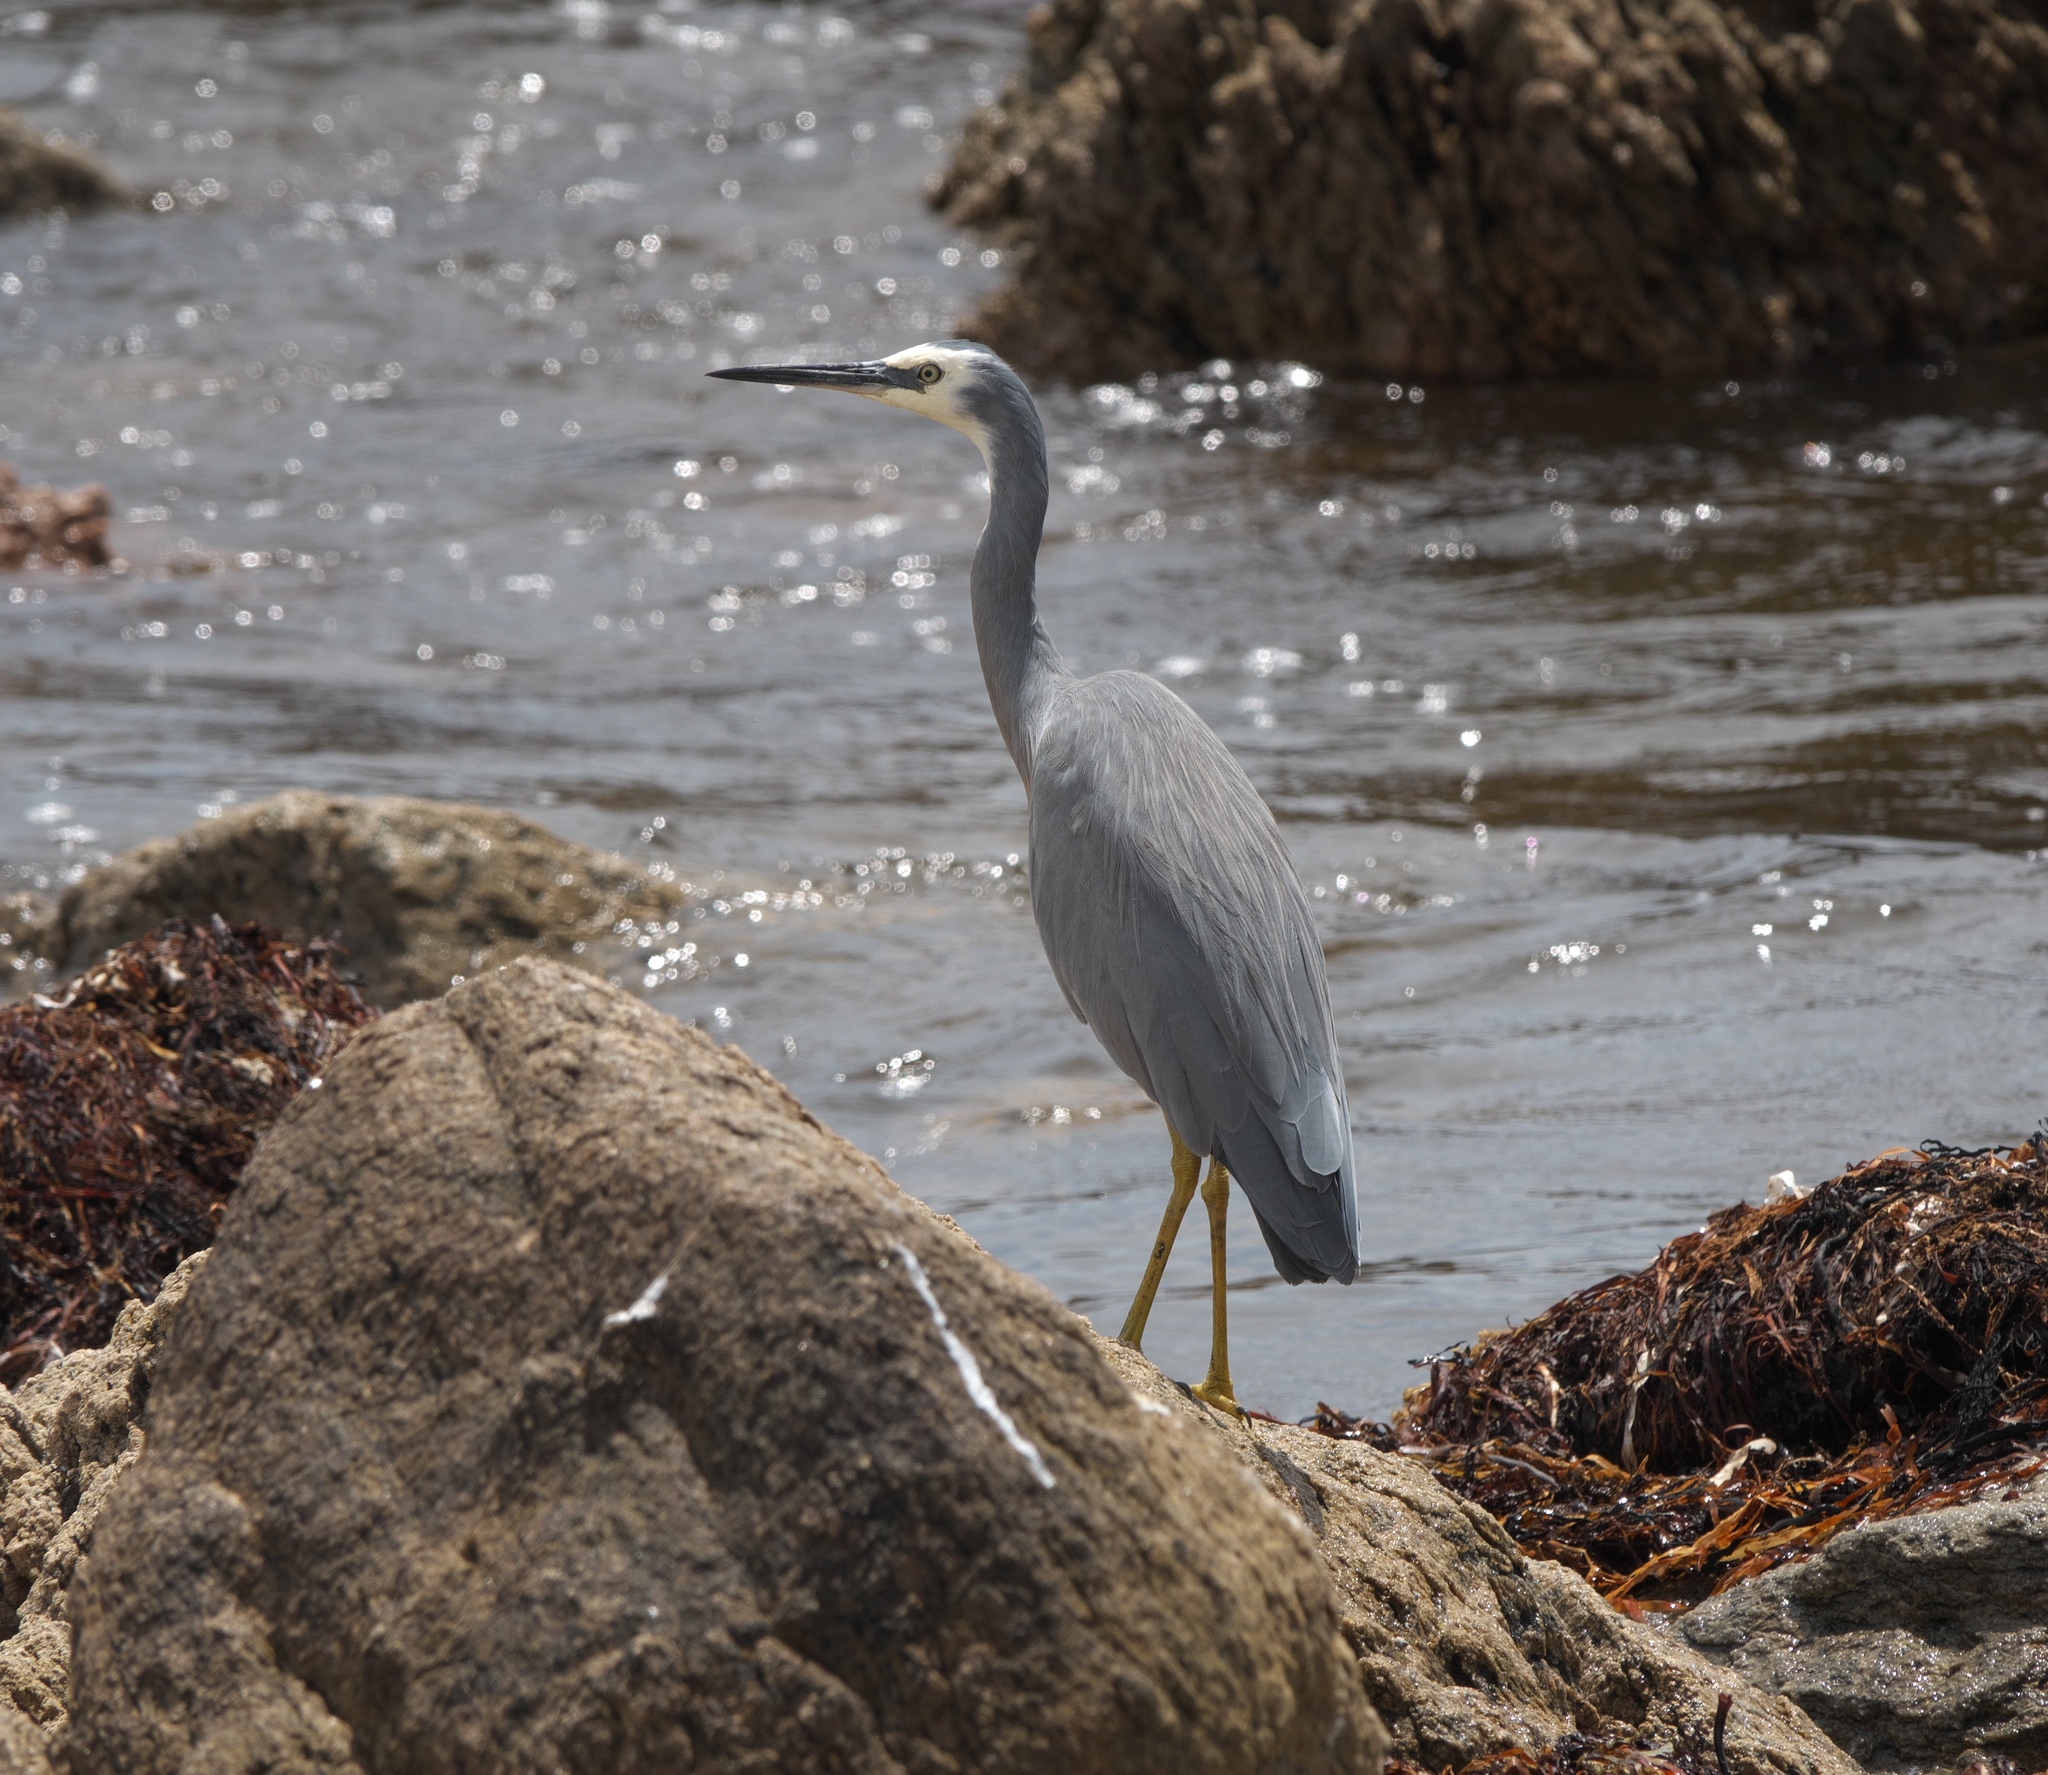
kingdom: Animalia
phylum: Chordata
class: Aves
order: Pelecaniformes
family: Ardeidae
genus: Egretta
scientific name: Egretta novaehollandiae
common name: White-faced heron
